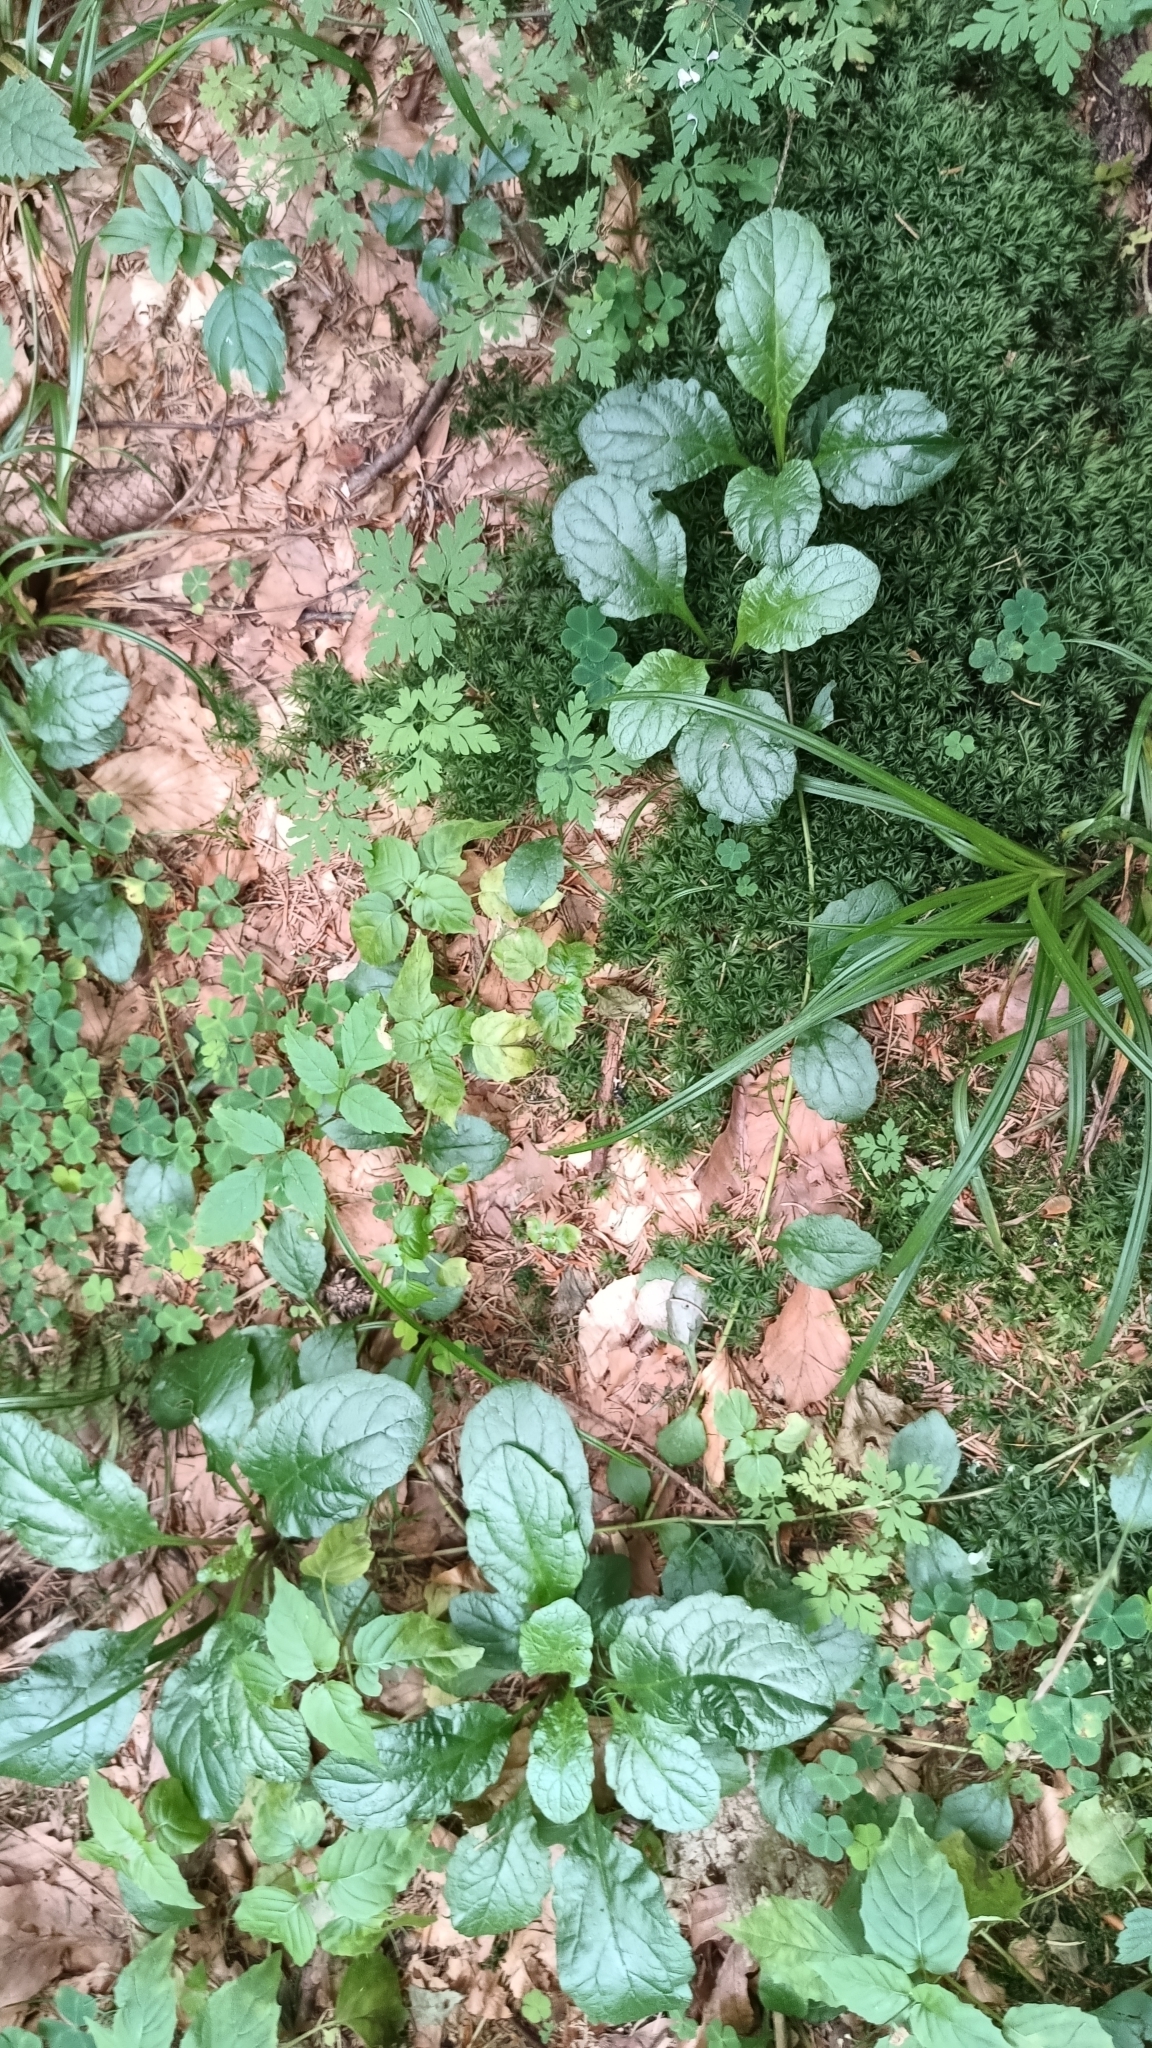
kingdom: Plantae
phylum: Tracheophyta
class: Magnoliopsida
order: Lamiales
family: Lamiaceae
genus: Ajuga
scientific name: Ajuga reptans
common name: Bugle
